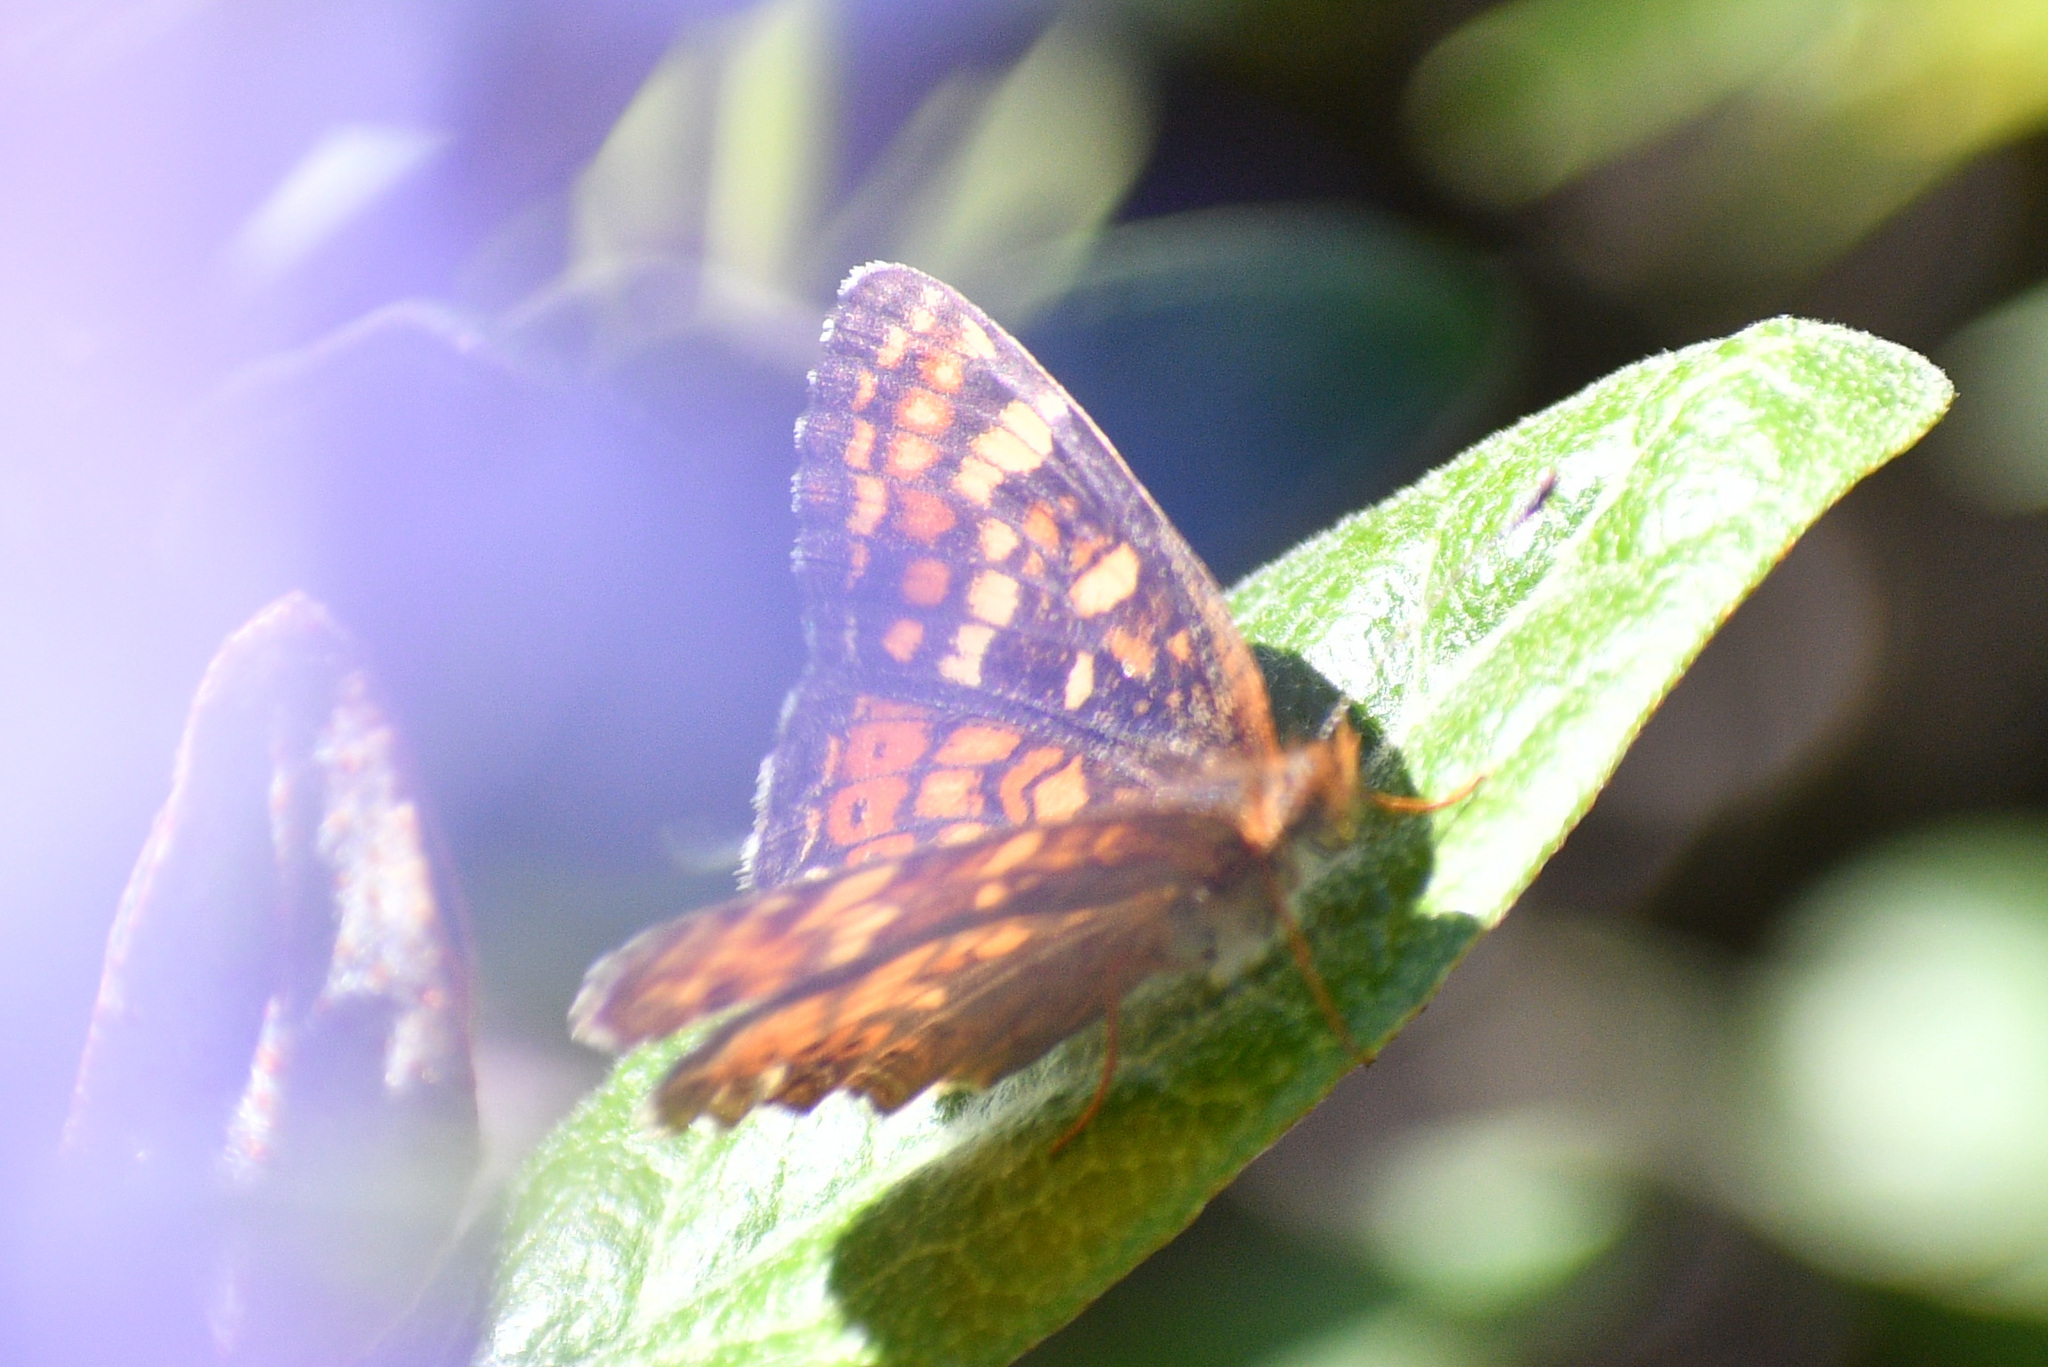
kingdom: Animalia
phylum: Arthropoda
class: Insecta
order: Lepidoptera
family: Nymphalidae
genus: Phyciodes
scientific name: Phyciodes tharos
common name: Pearl crescent
